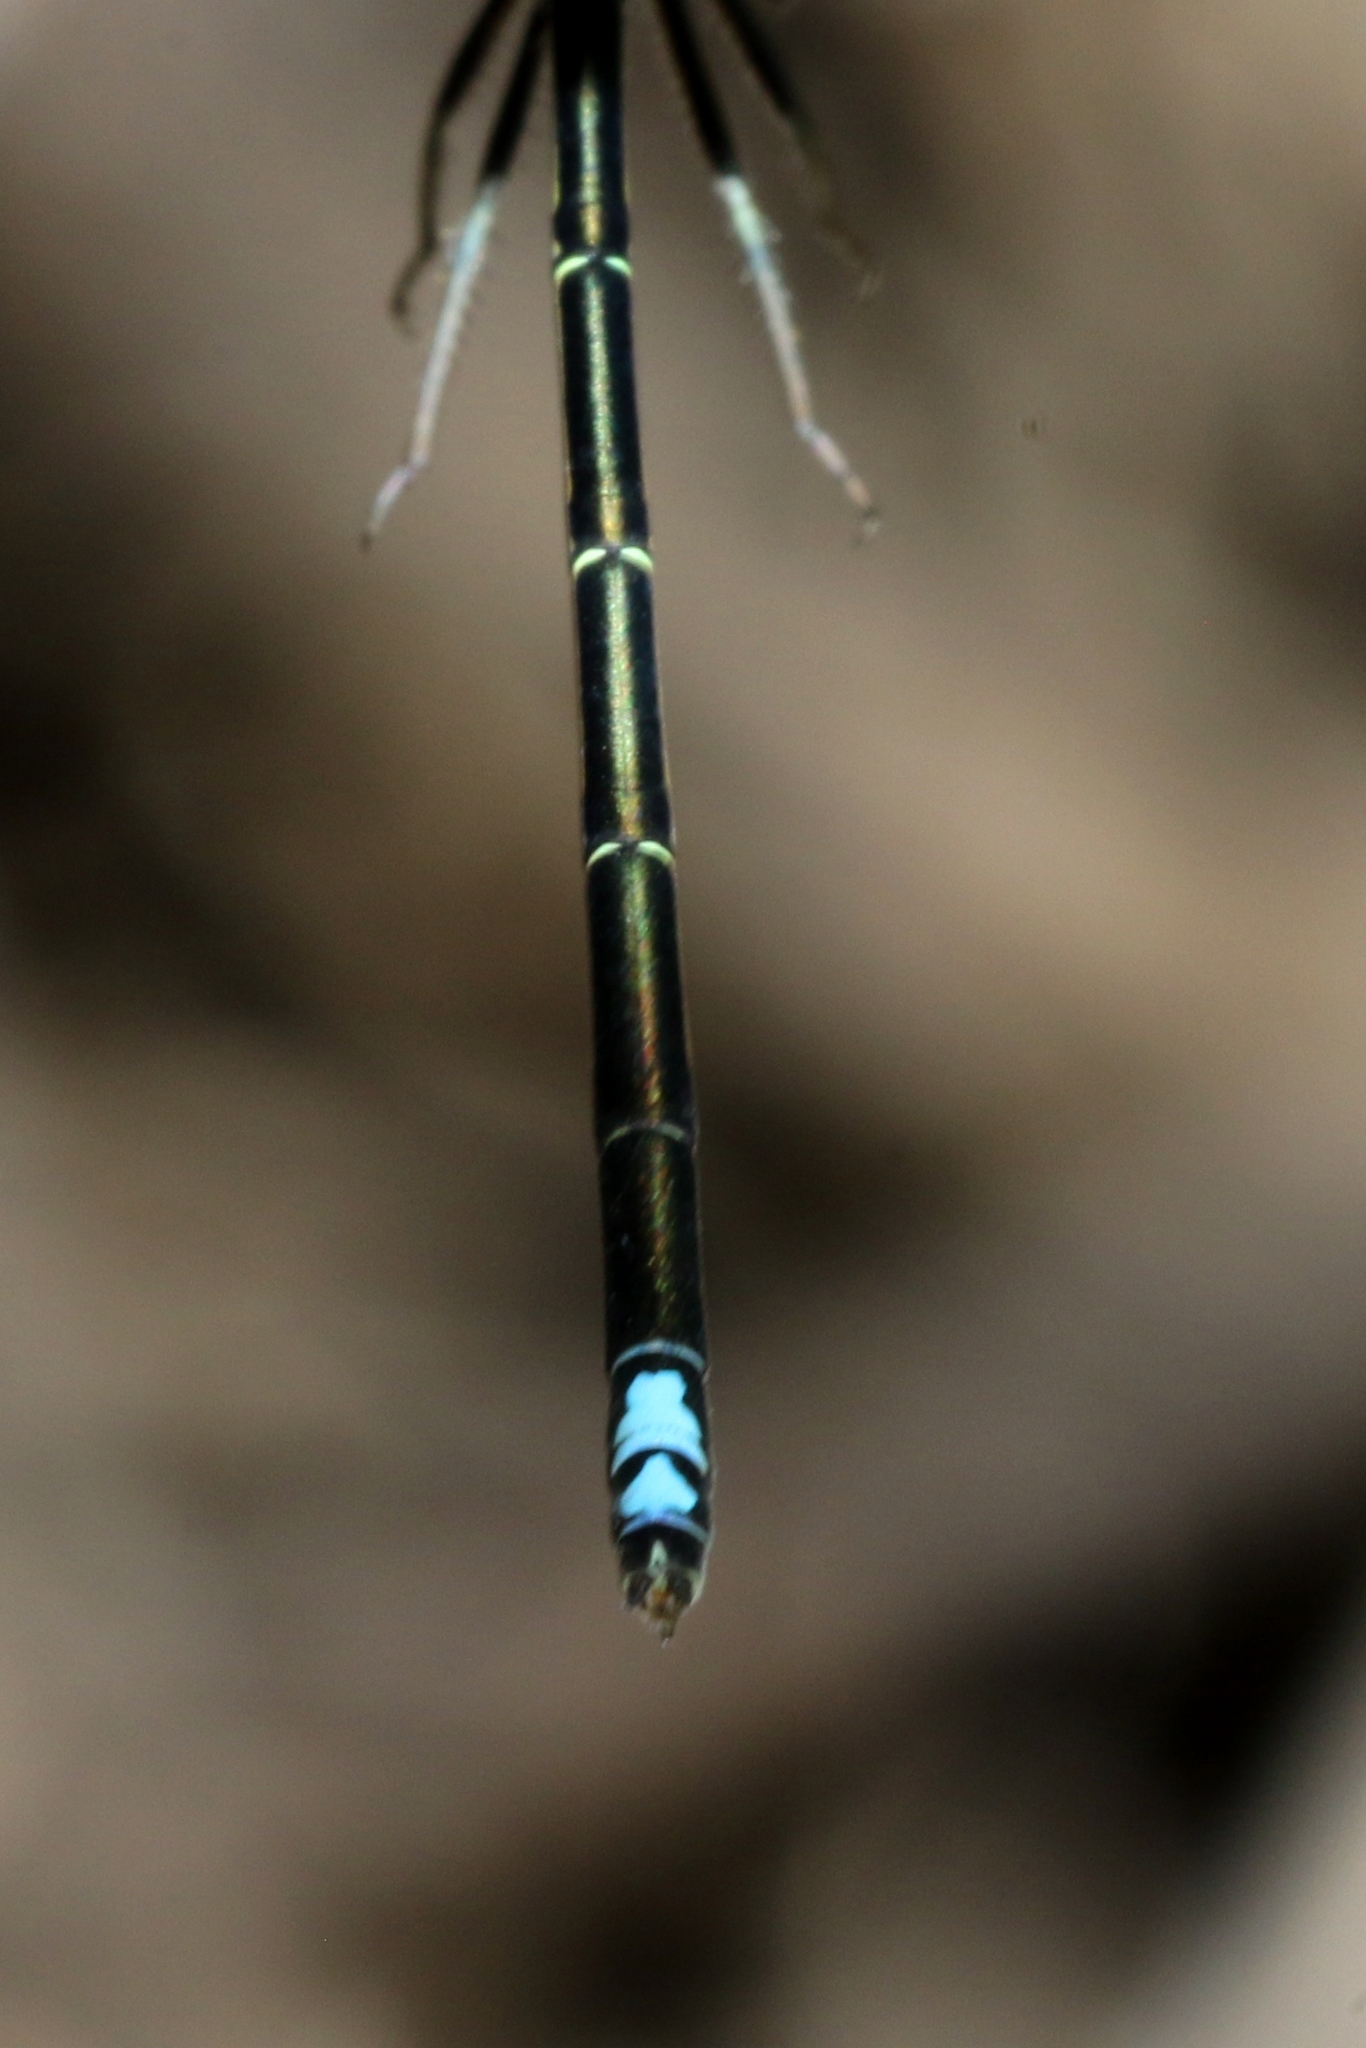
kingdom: Animalia
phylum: Arthropoda
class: Insecta
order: Odonata
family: Coenagrionidae
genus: Ischnura
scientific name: Ischnura verticalis
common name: Eastern forktail
